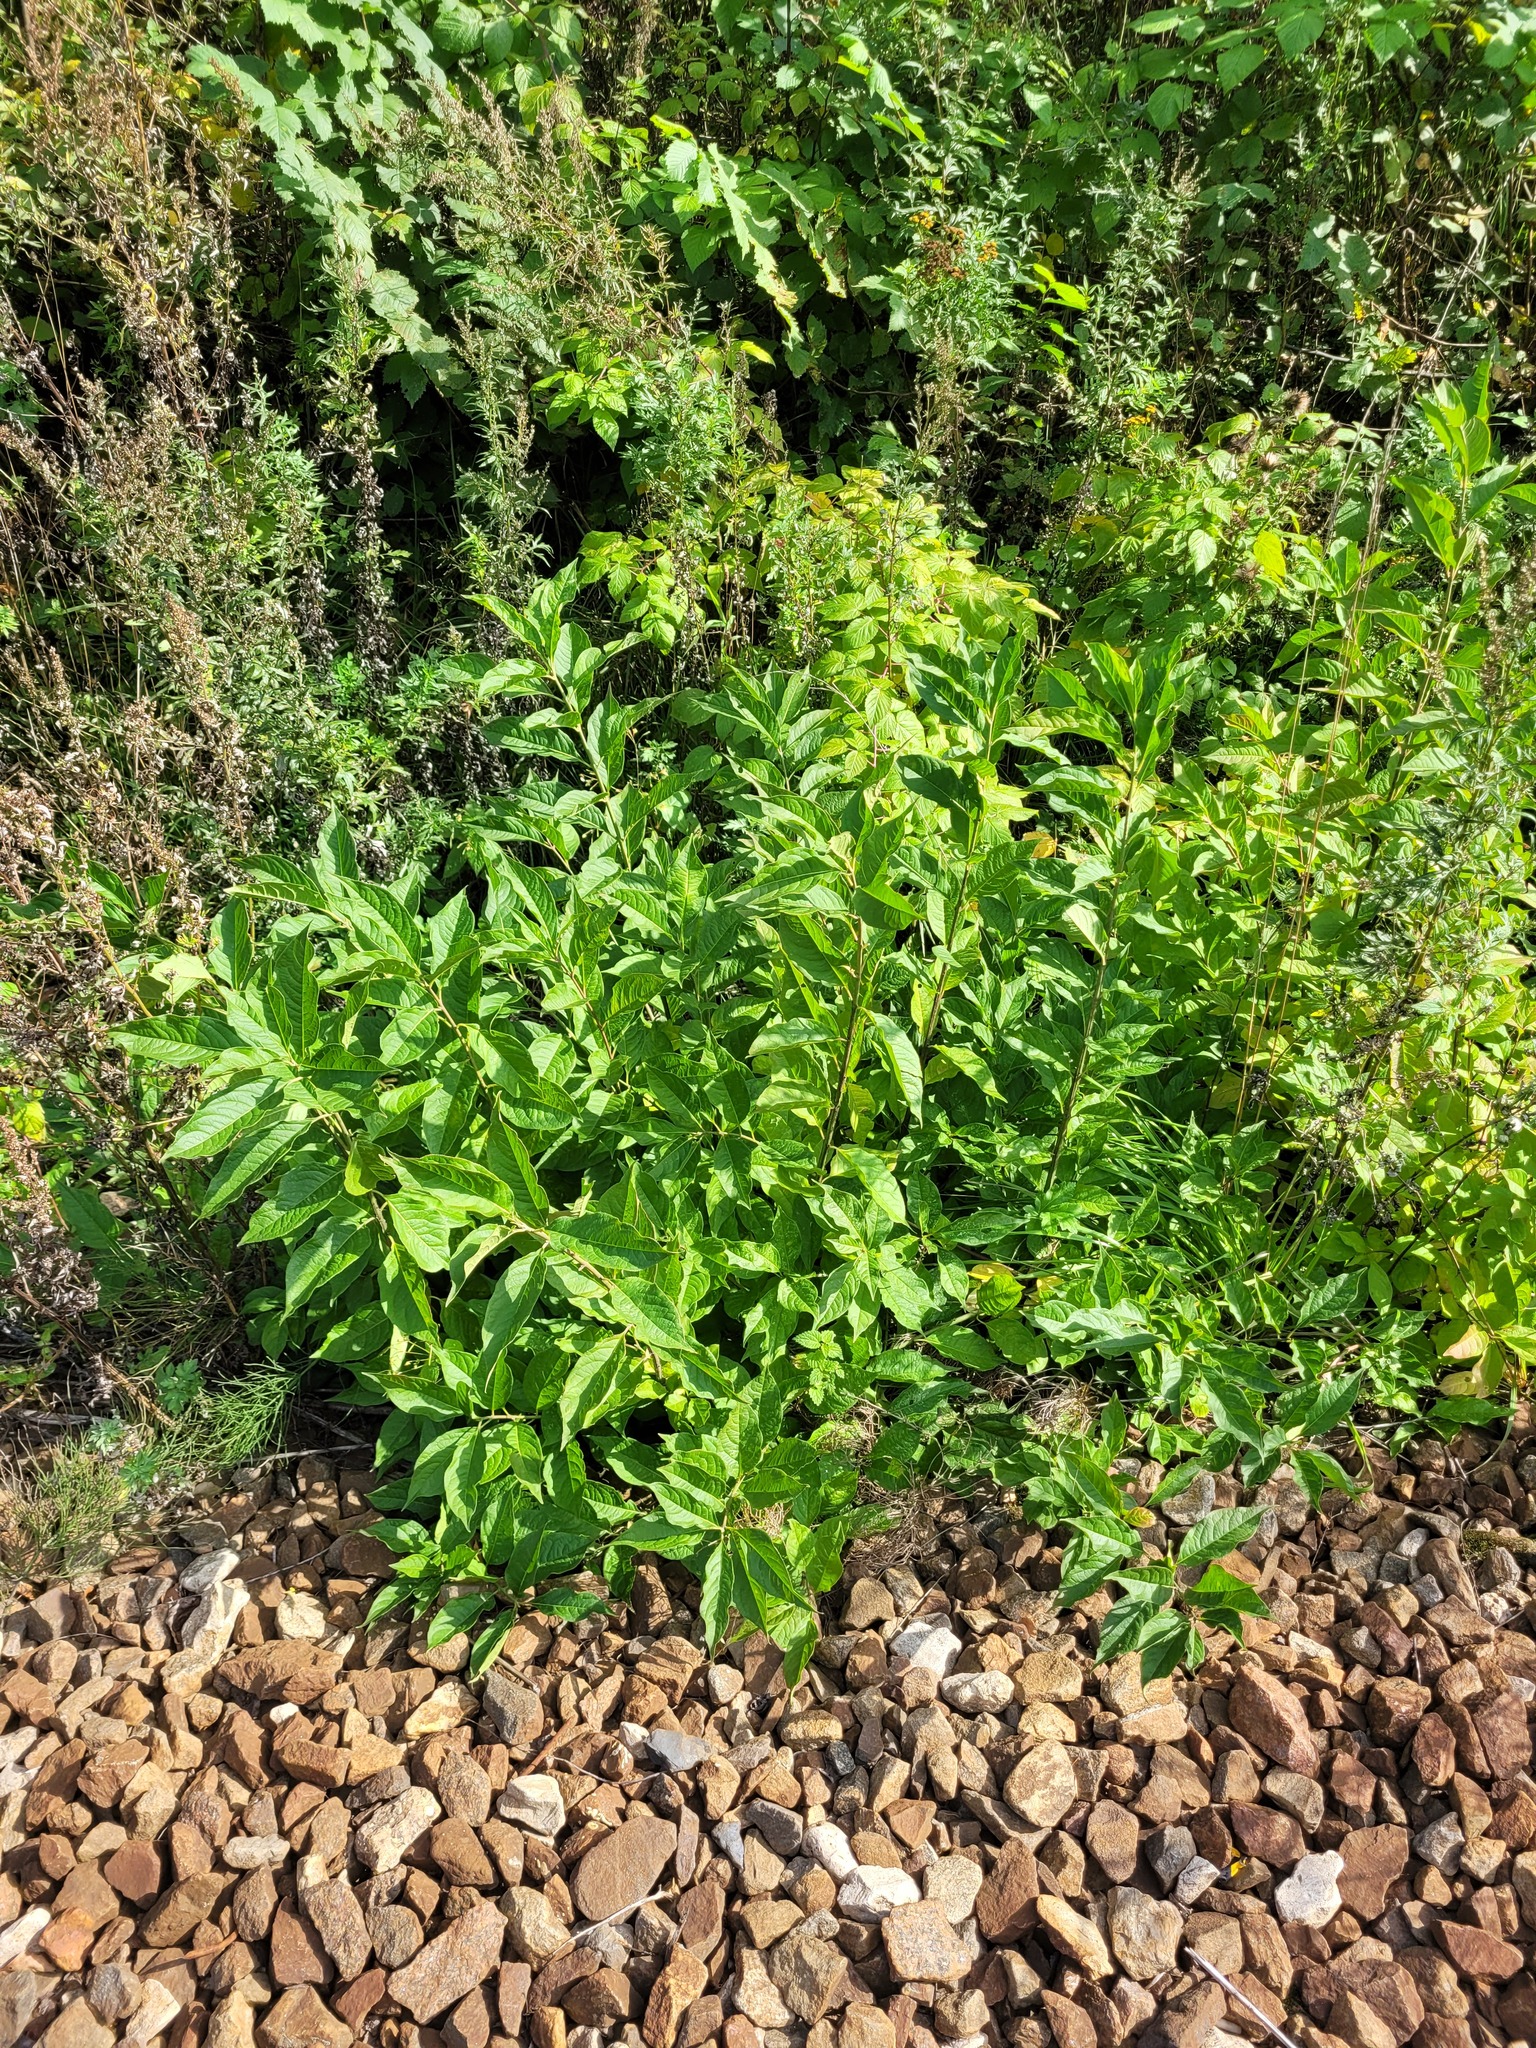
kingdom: Plantae
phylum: Tracheophyta
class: Magnoliopsida
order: Celastrales
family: Celastraceae
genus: Euonymus
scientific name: Euonymus europaeus
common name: Spindle
